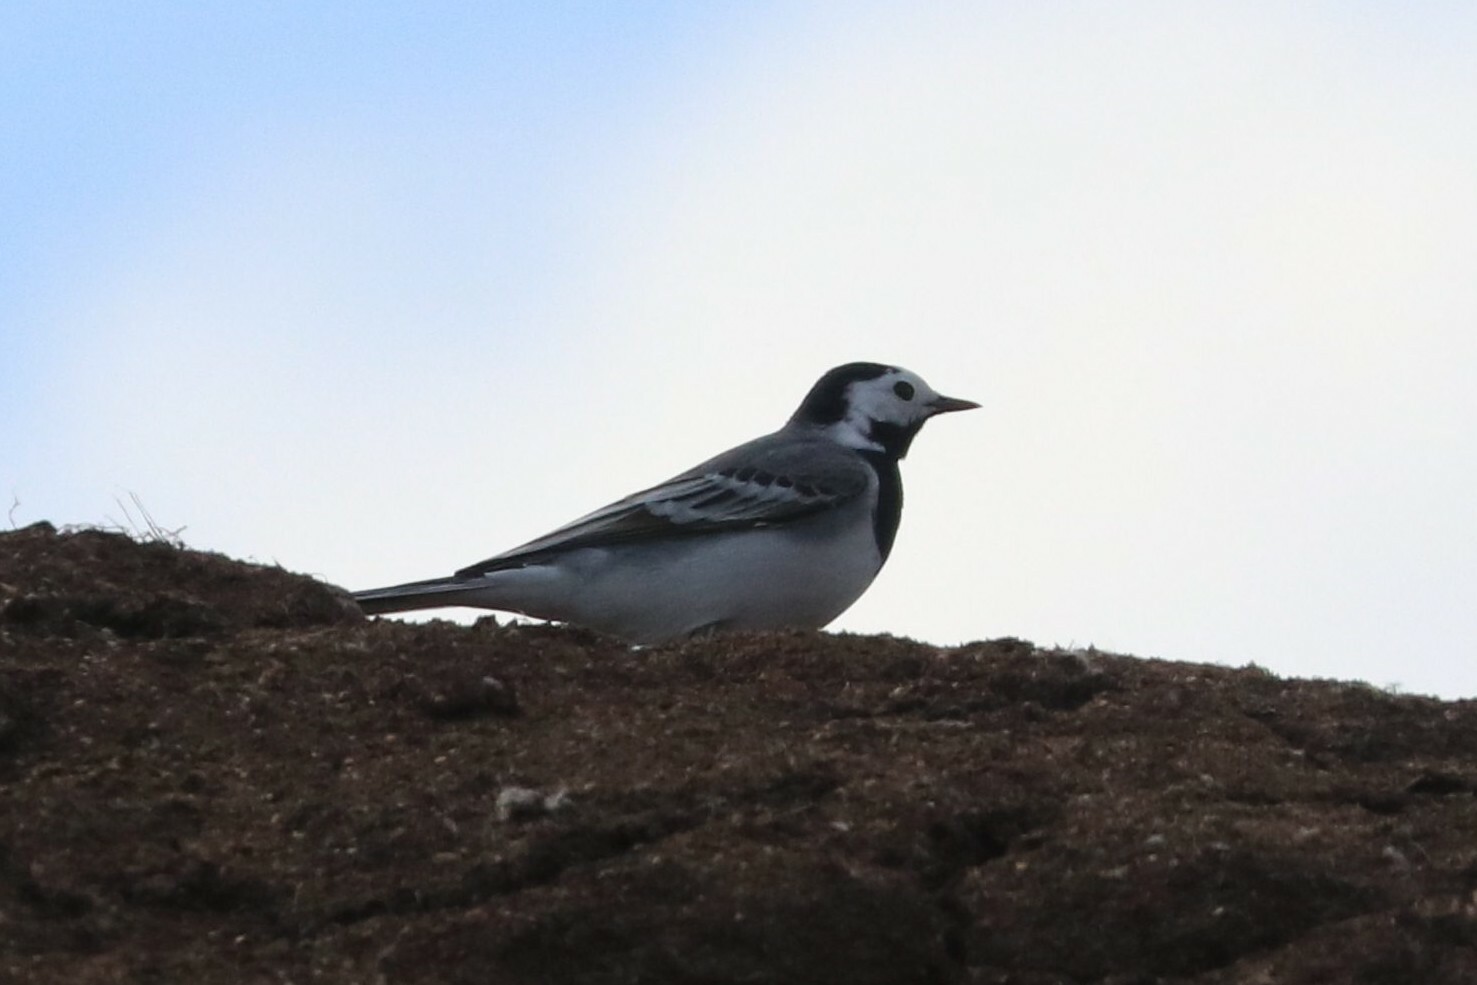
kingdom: Animalia
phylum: Chordata
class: Aves
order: Passeriformes
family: Motacillidae
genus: Motacilla
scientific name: Motacilla alba
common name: White wagtail
